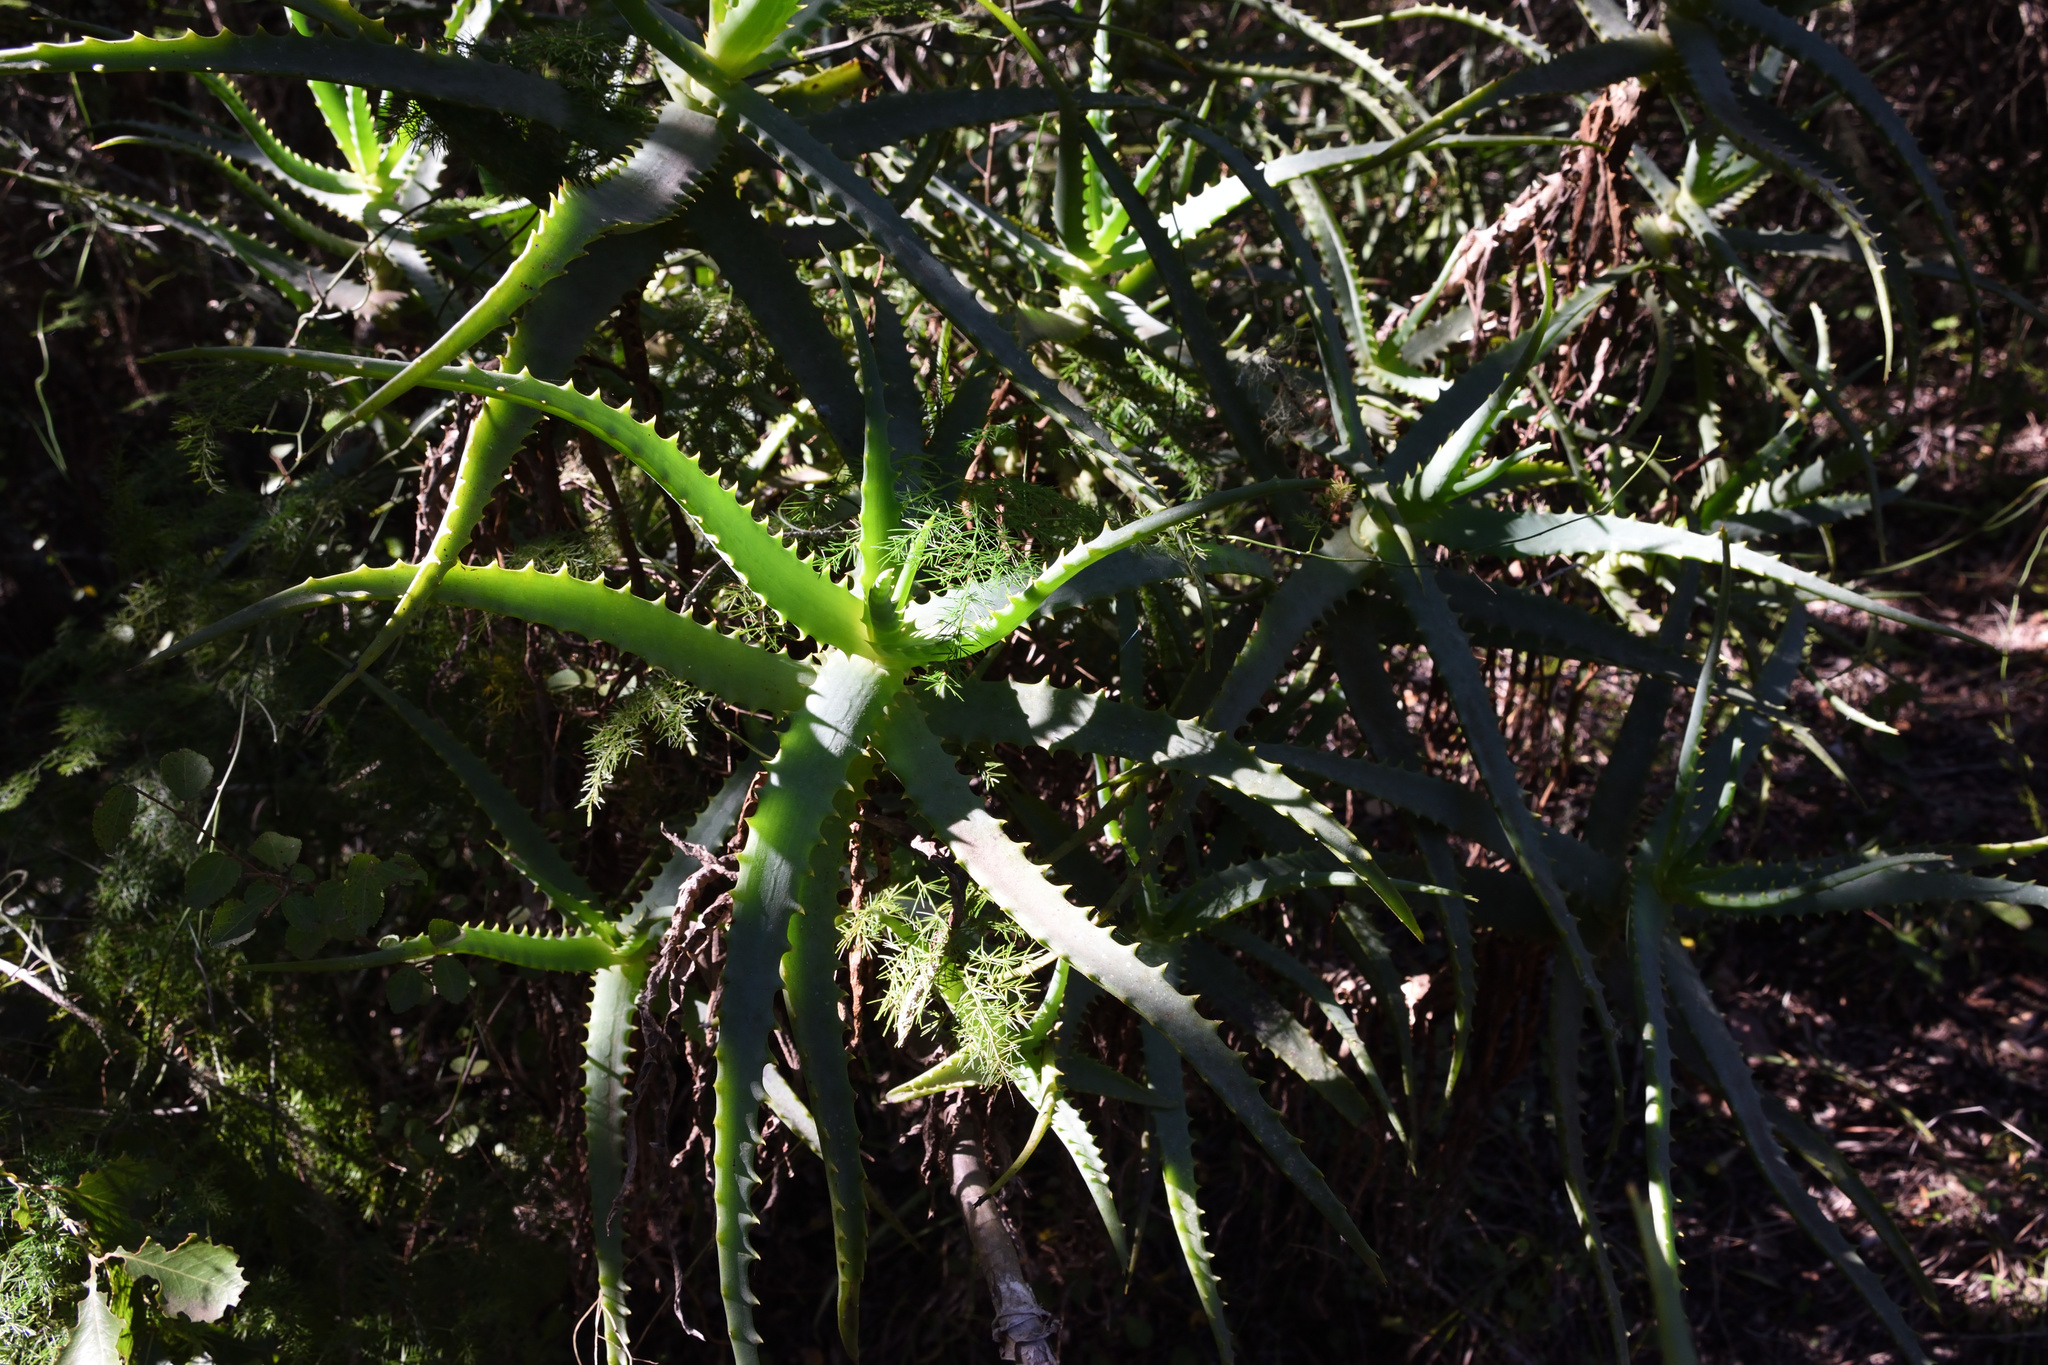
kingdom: Plantae
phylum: Tracheophyta
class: Liliopsida
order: Asparagales
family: Asphodelaceae
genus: Aloe
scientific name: Aloe arborescens
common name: Candelabra aloe
